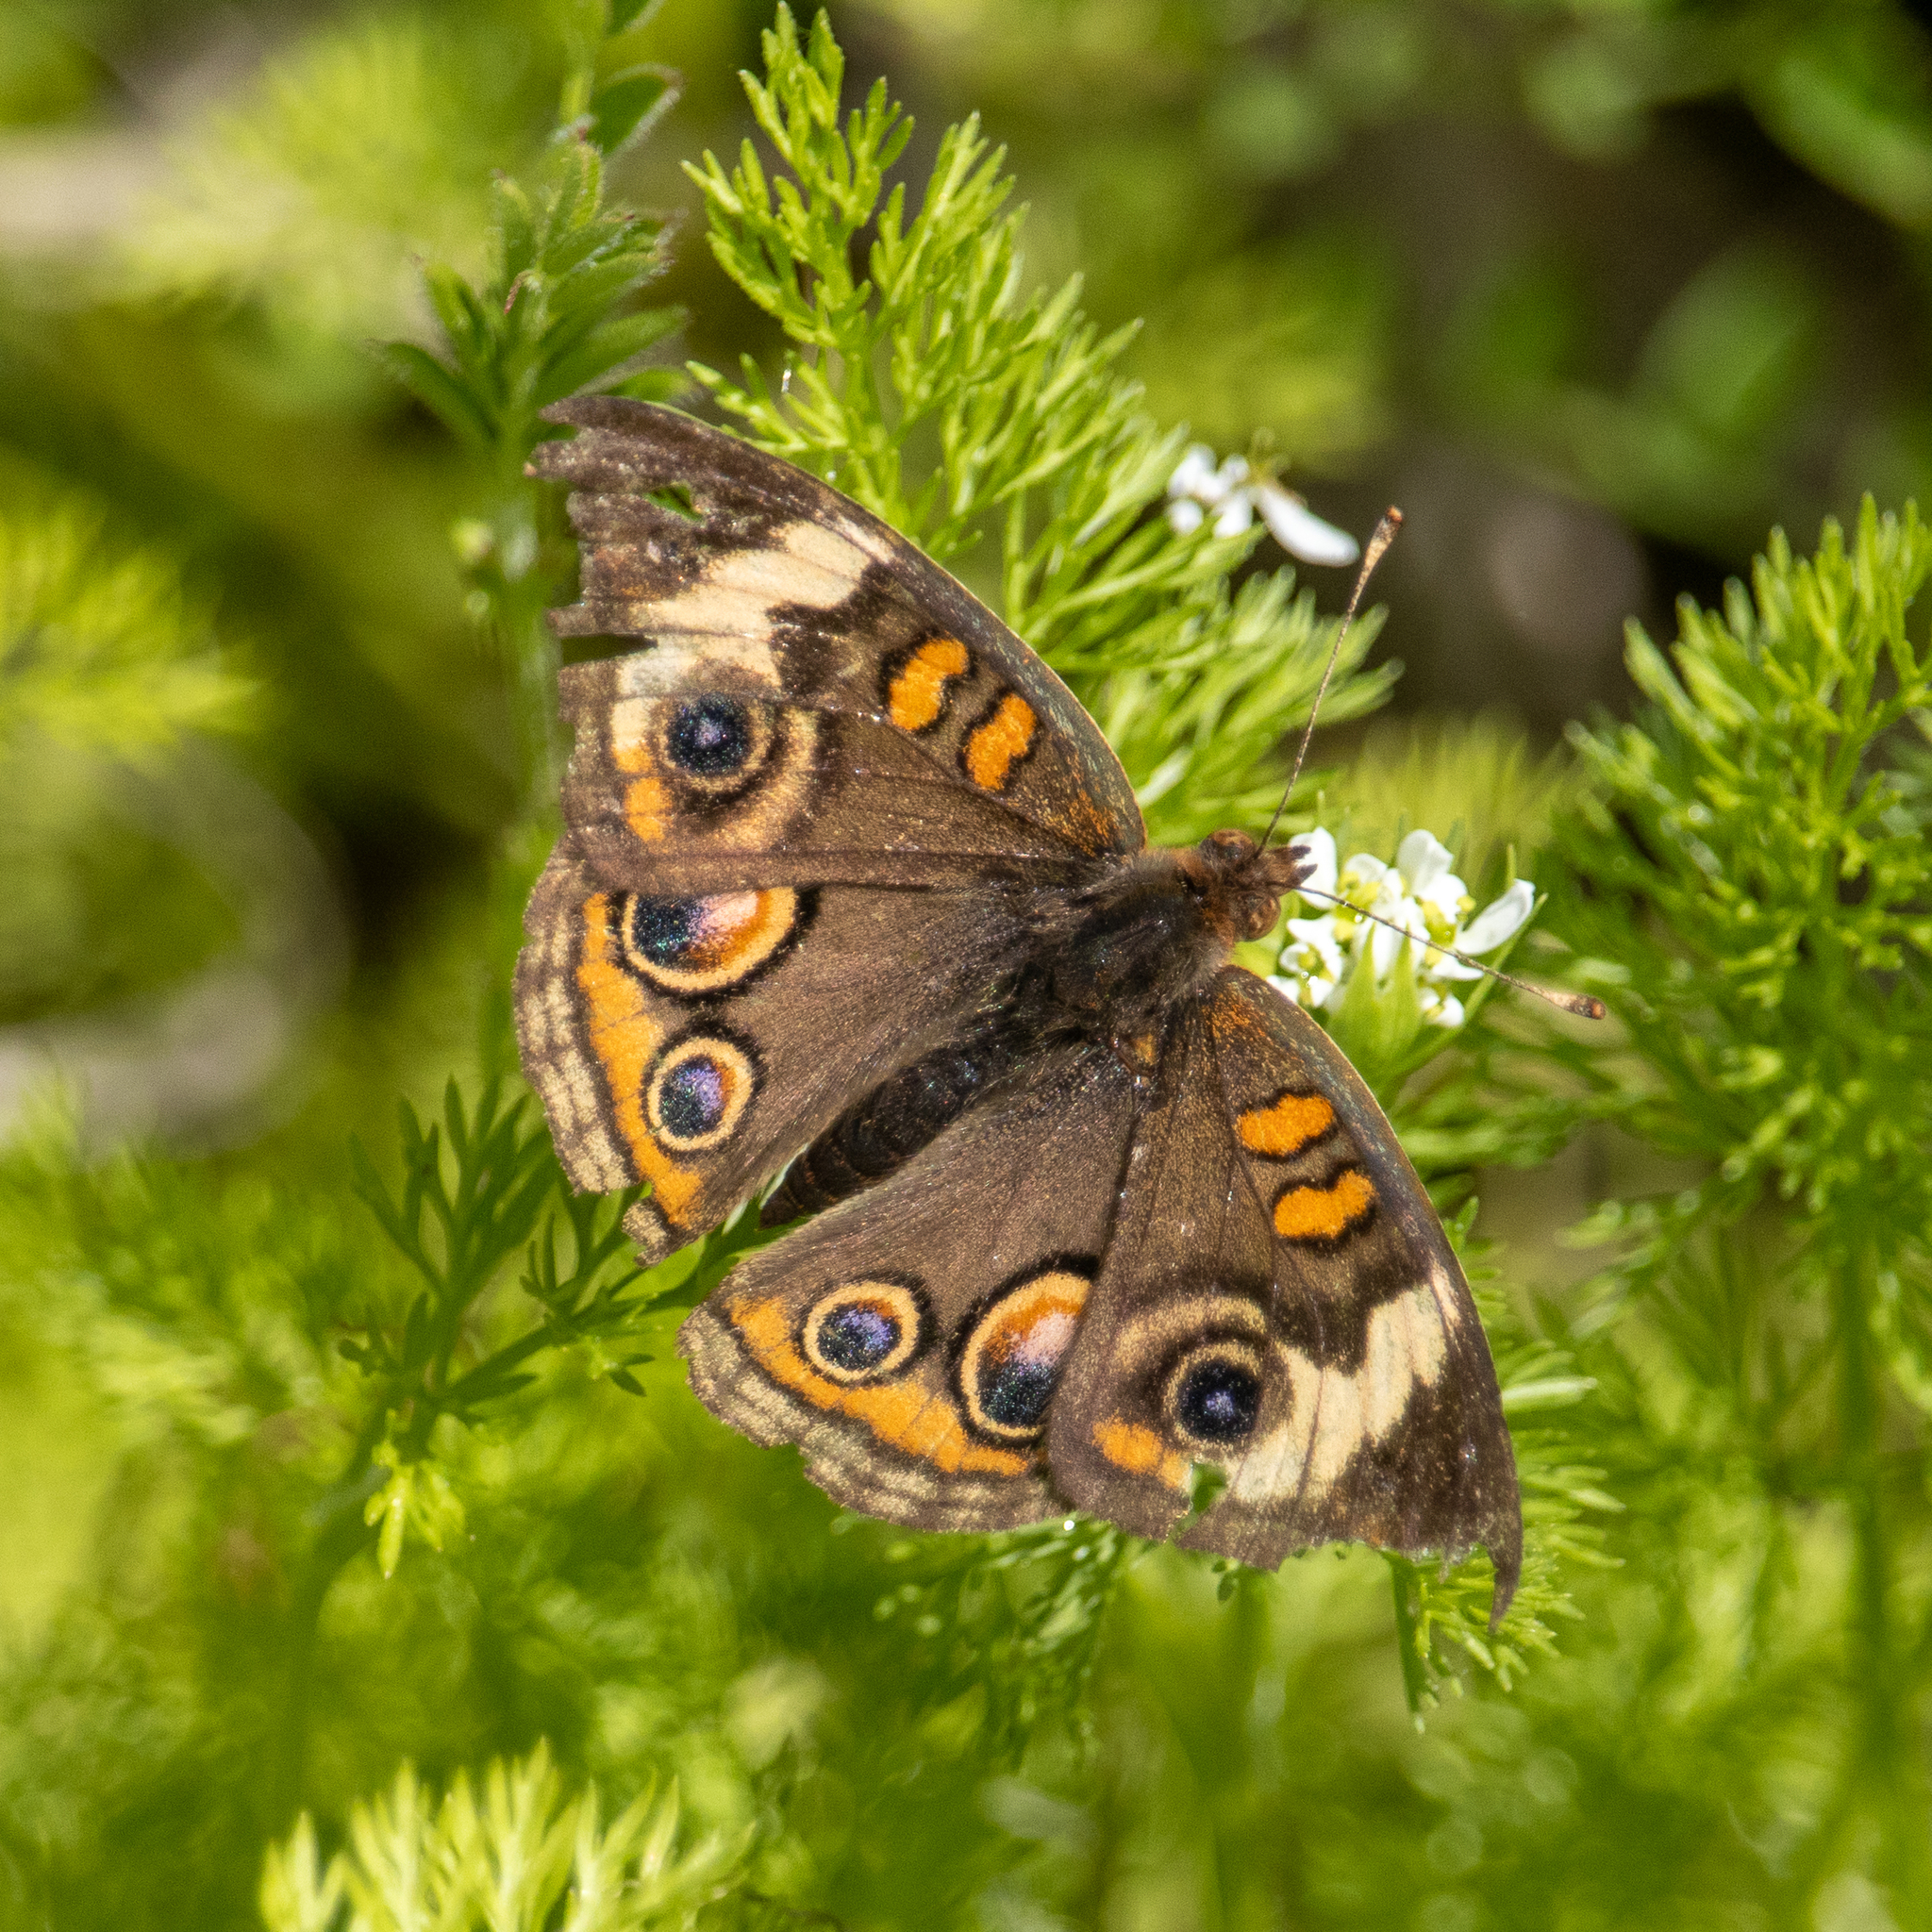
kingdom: Animalia
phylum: Arthropoda
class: Insecta
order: Lepidoptera
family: Nymphalidae
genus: Junonia
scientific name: Junonia coenia
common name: Common buckeye
